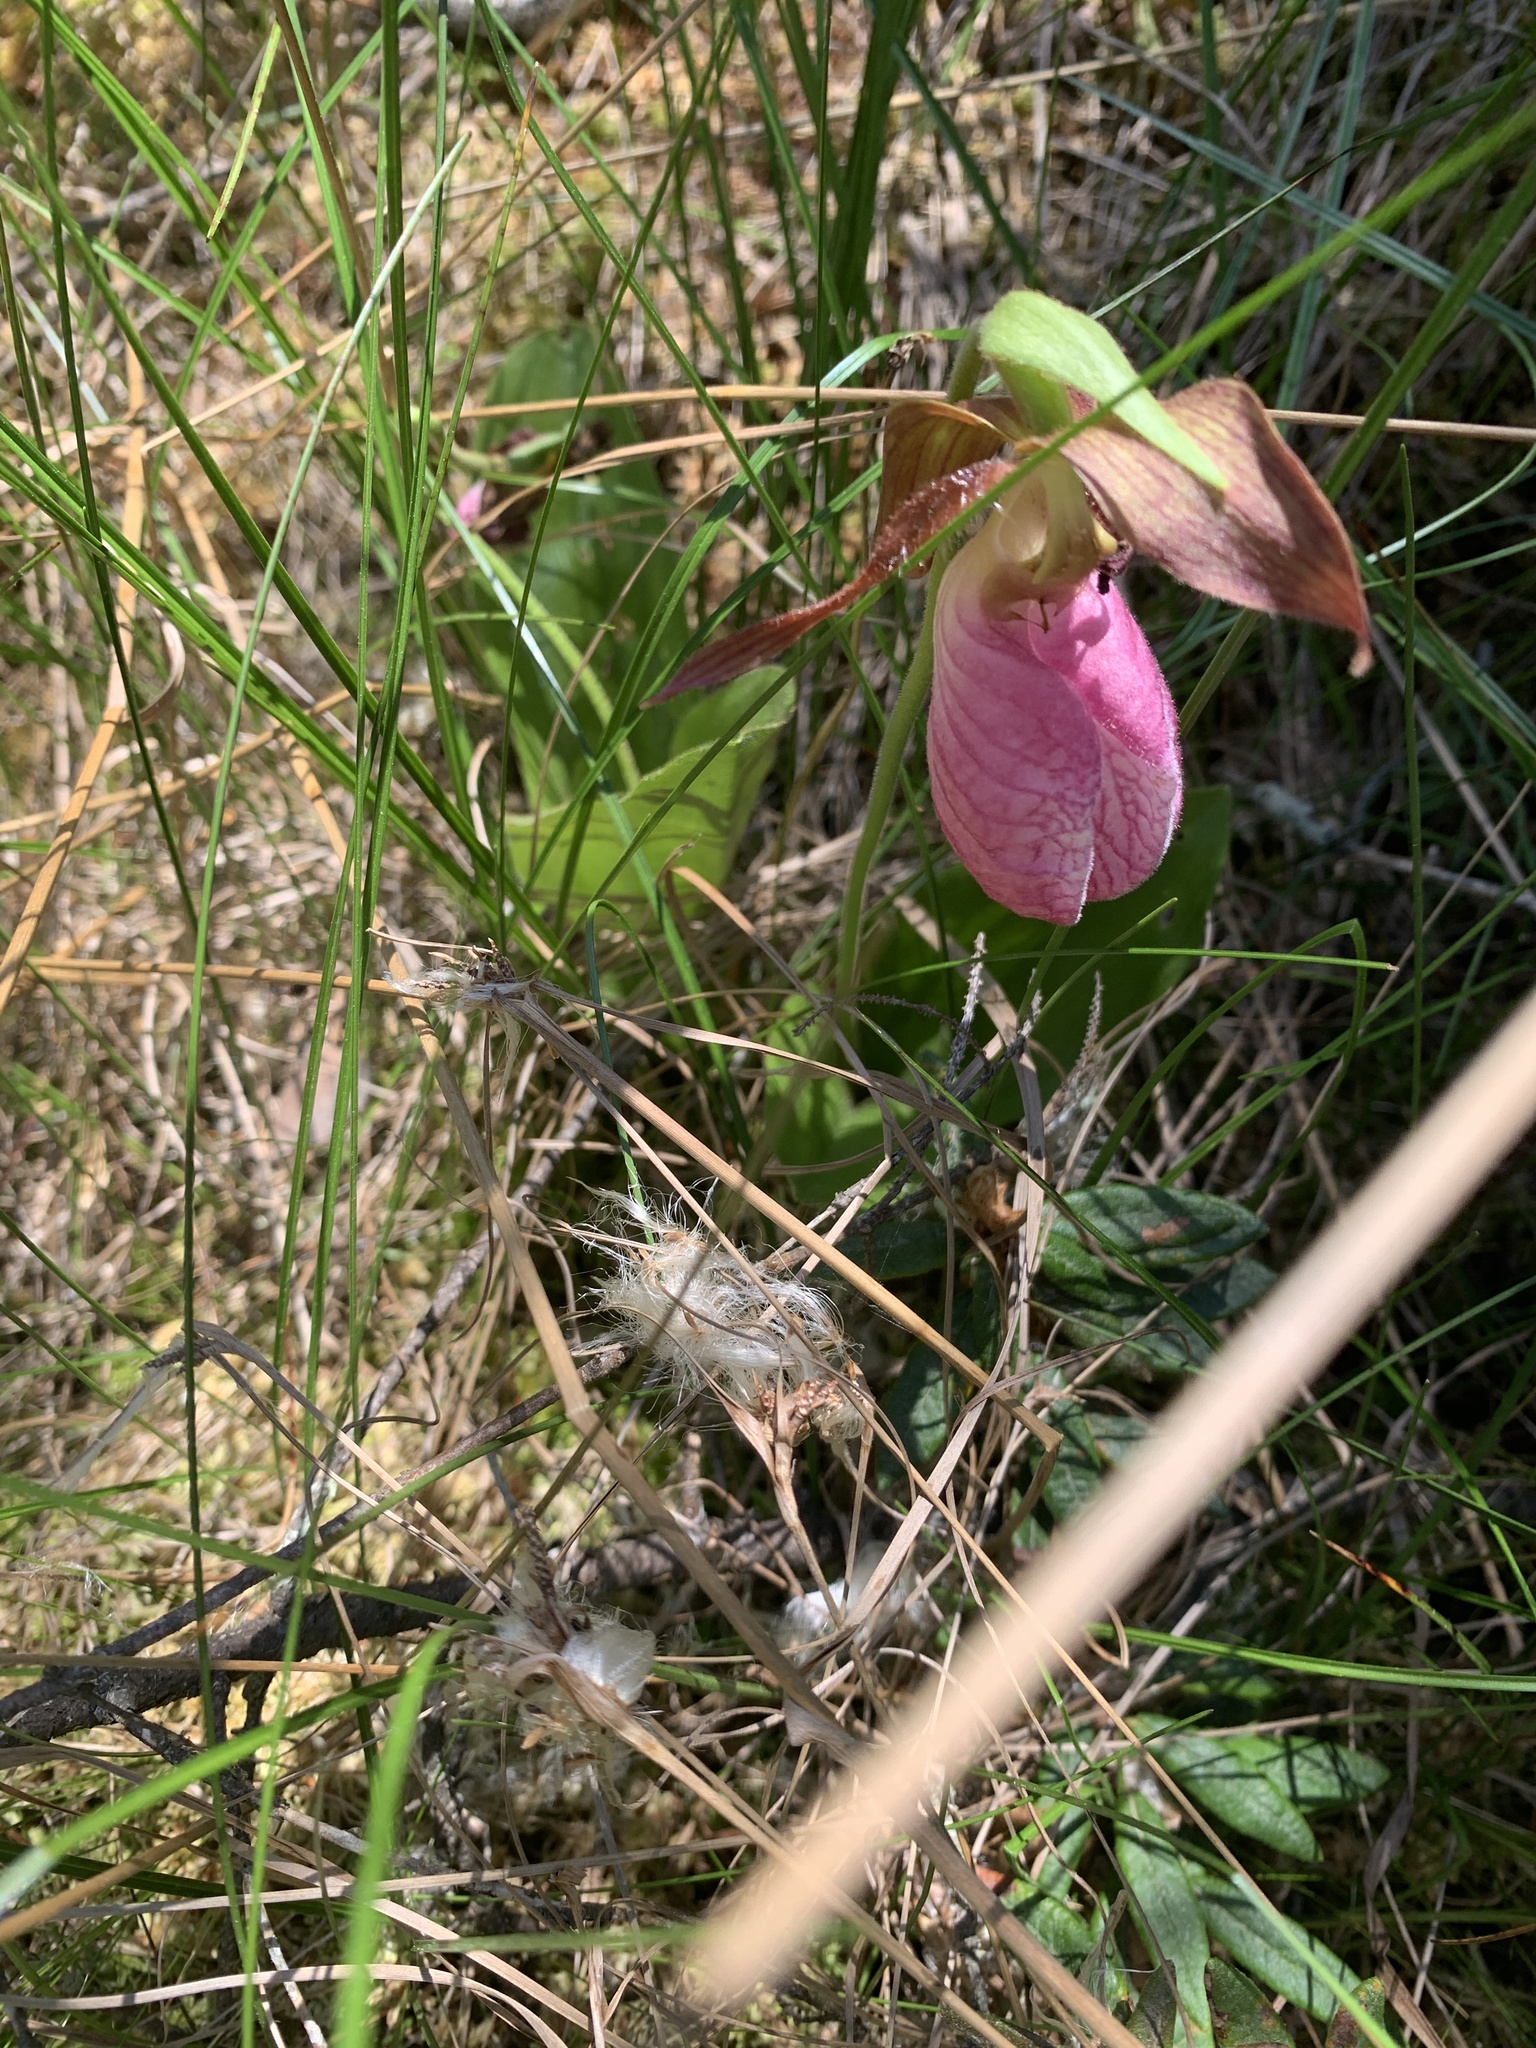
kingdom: Plantae
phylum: Tracheophyta
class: Liliopsida
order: Asparagales
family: Orchidaceae
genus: Cypripedium
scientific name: Cypripedium acaule
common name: Pink lady's-slipper
